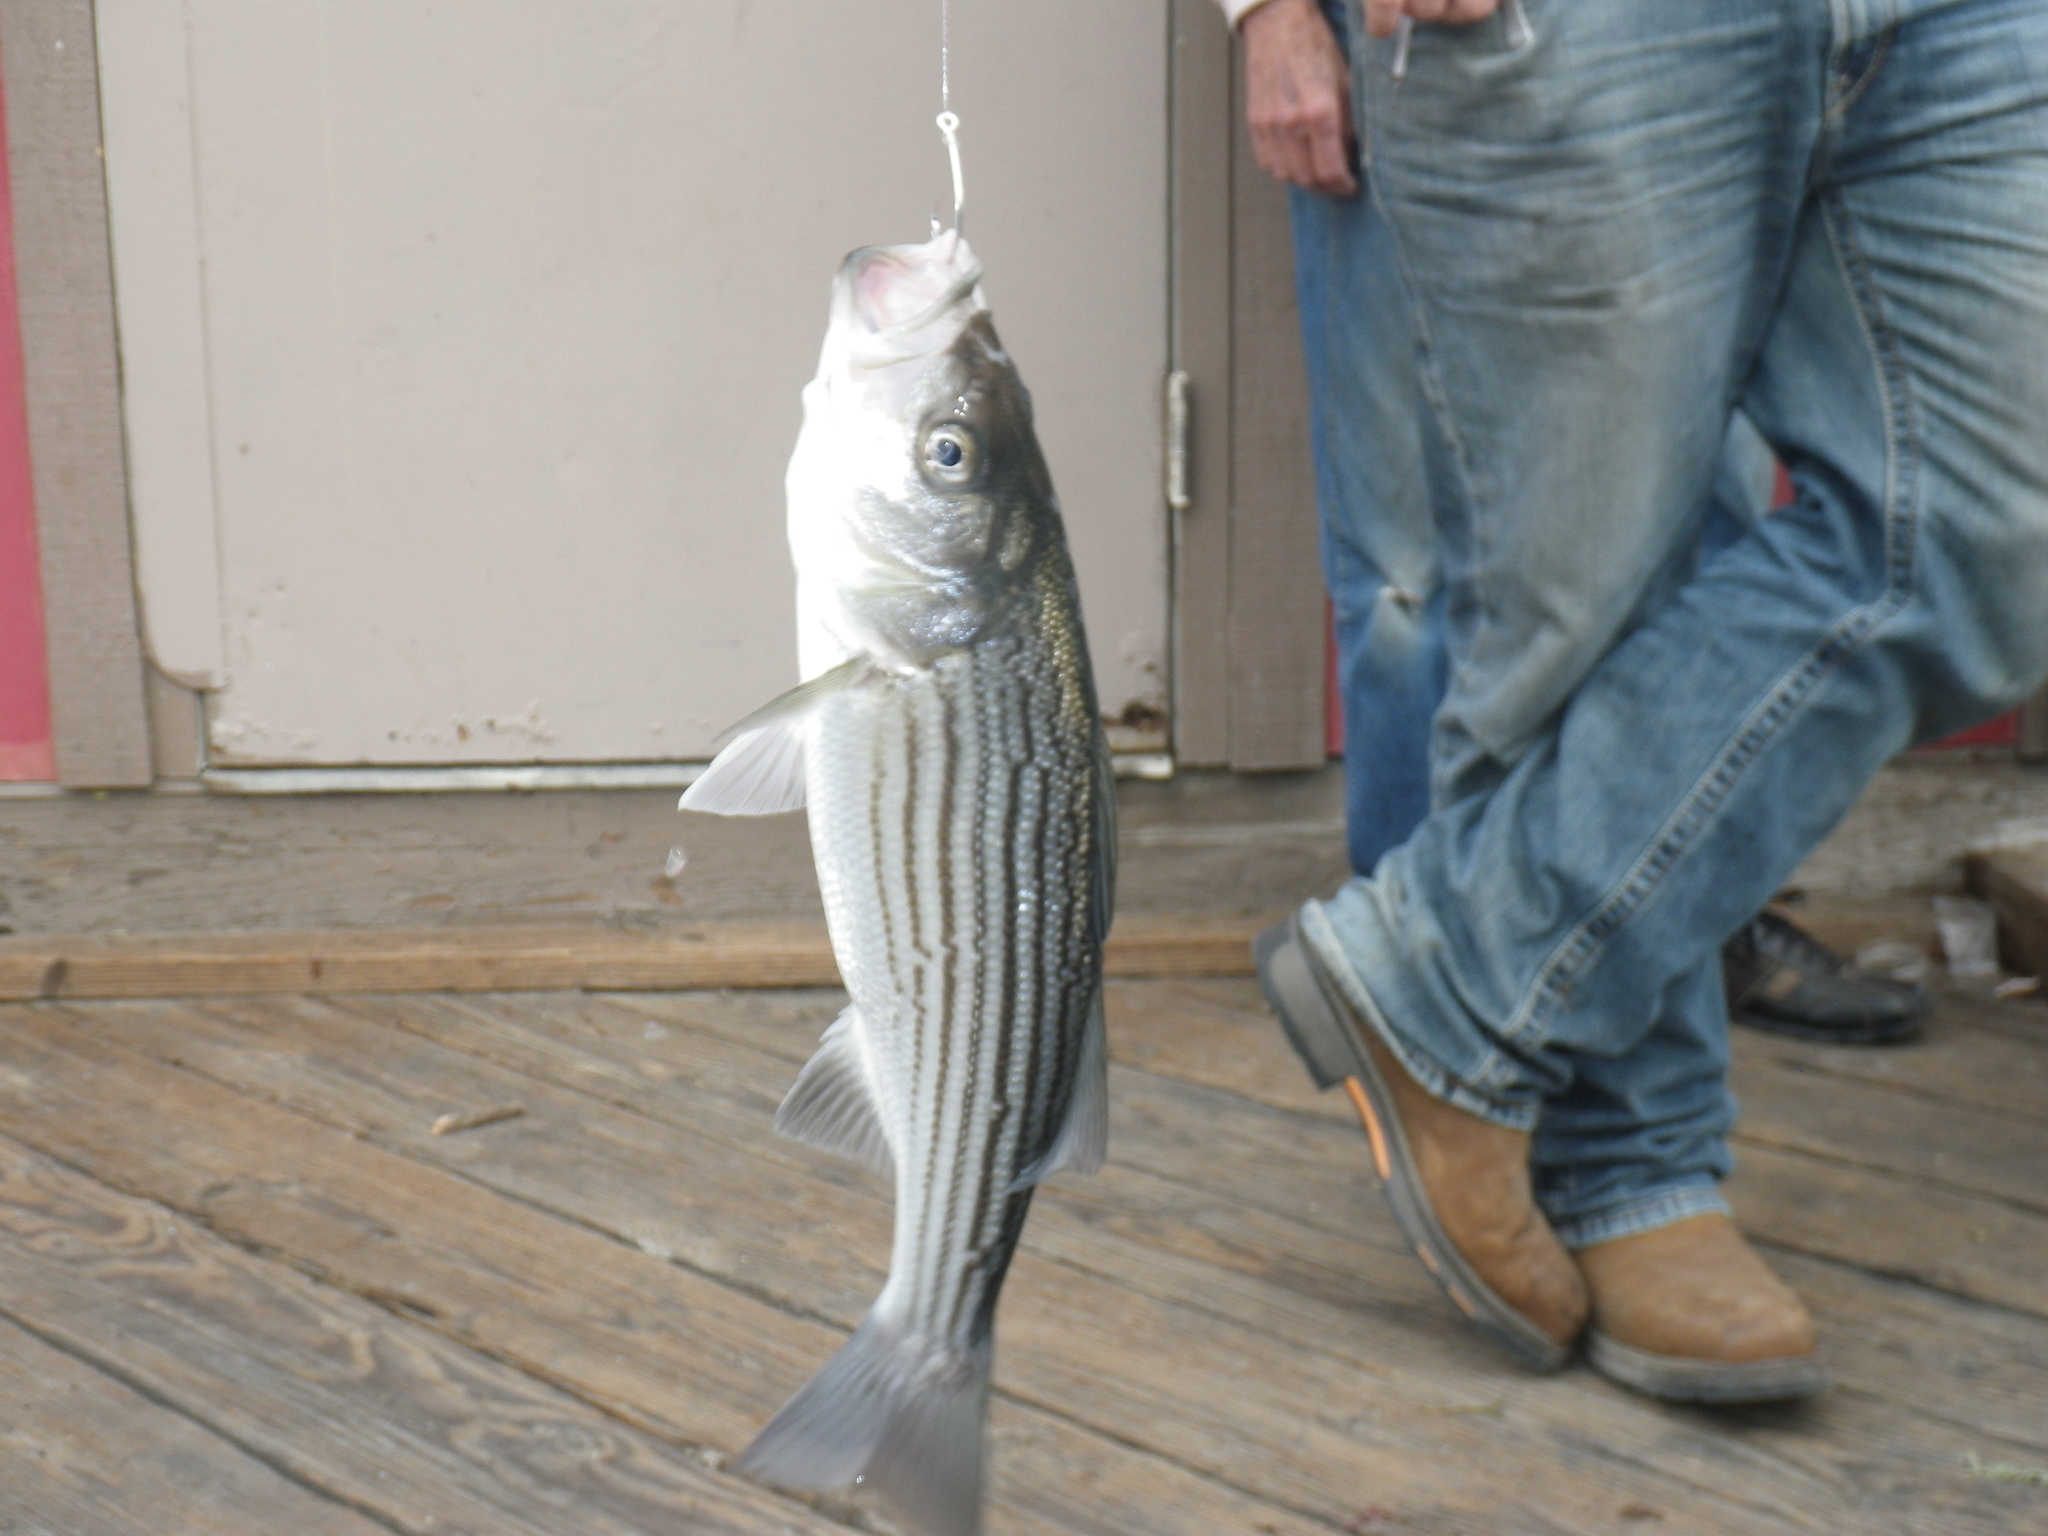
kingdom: Animalia
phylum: Chordata
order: Perciformes
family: Moronidae
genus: Morone
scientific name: Morone saxatilis
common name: Striped bass
